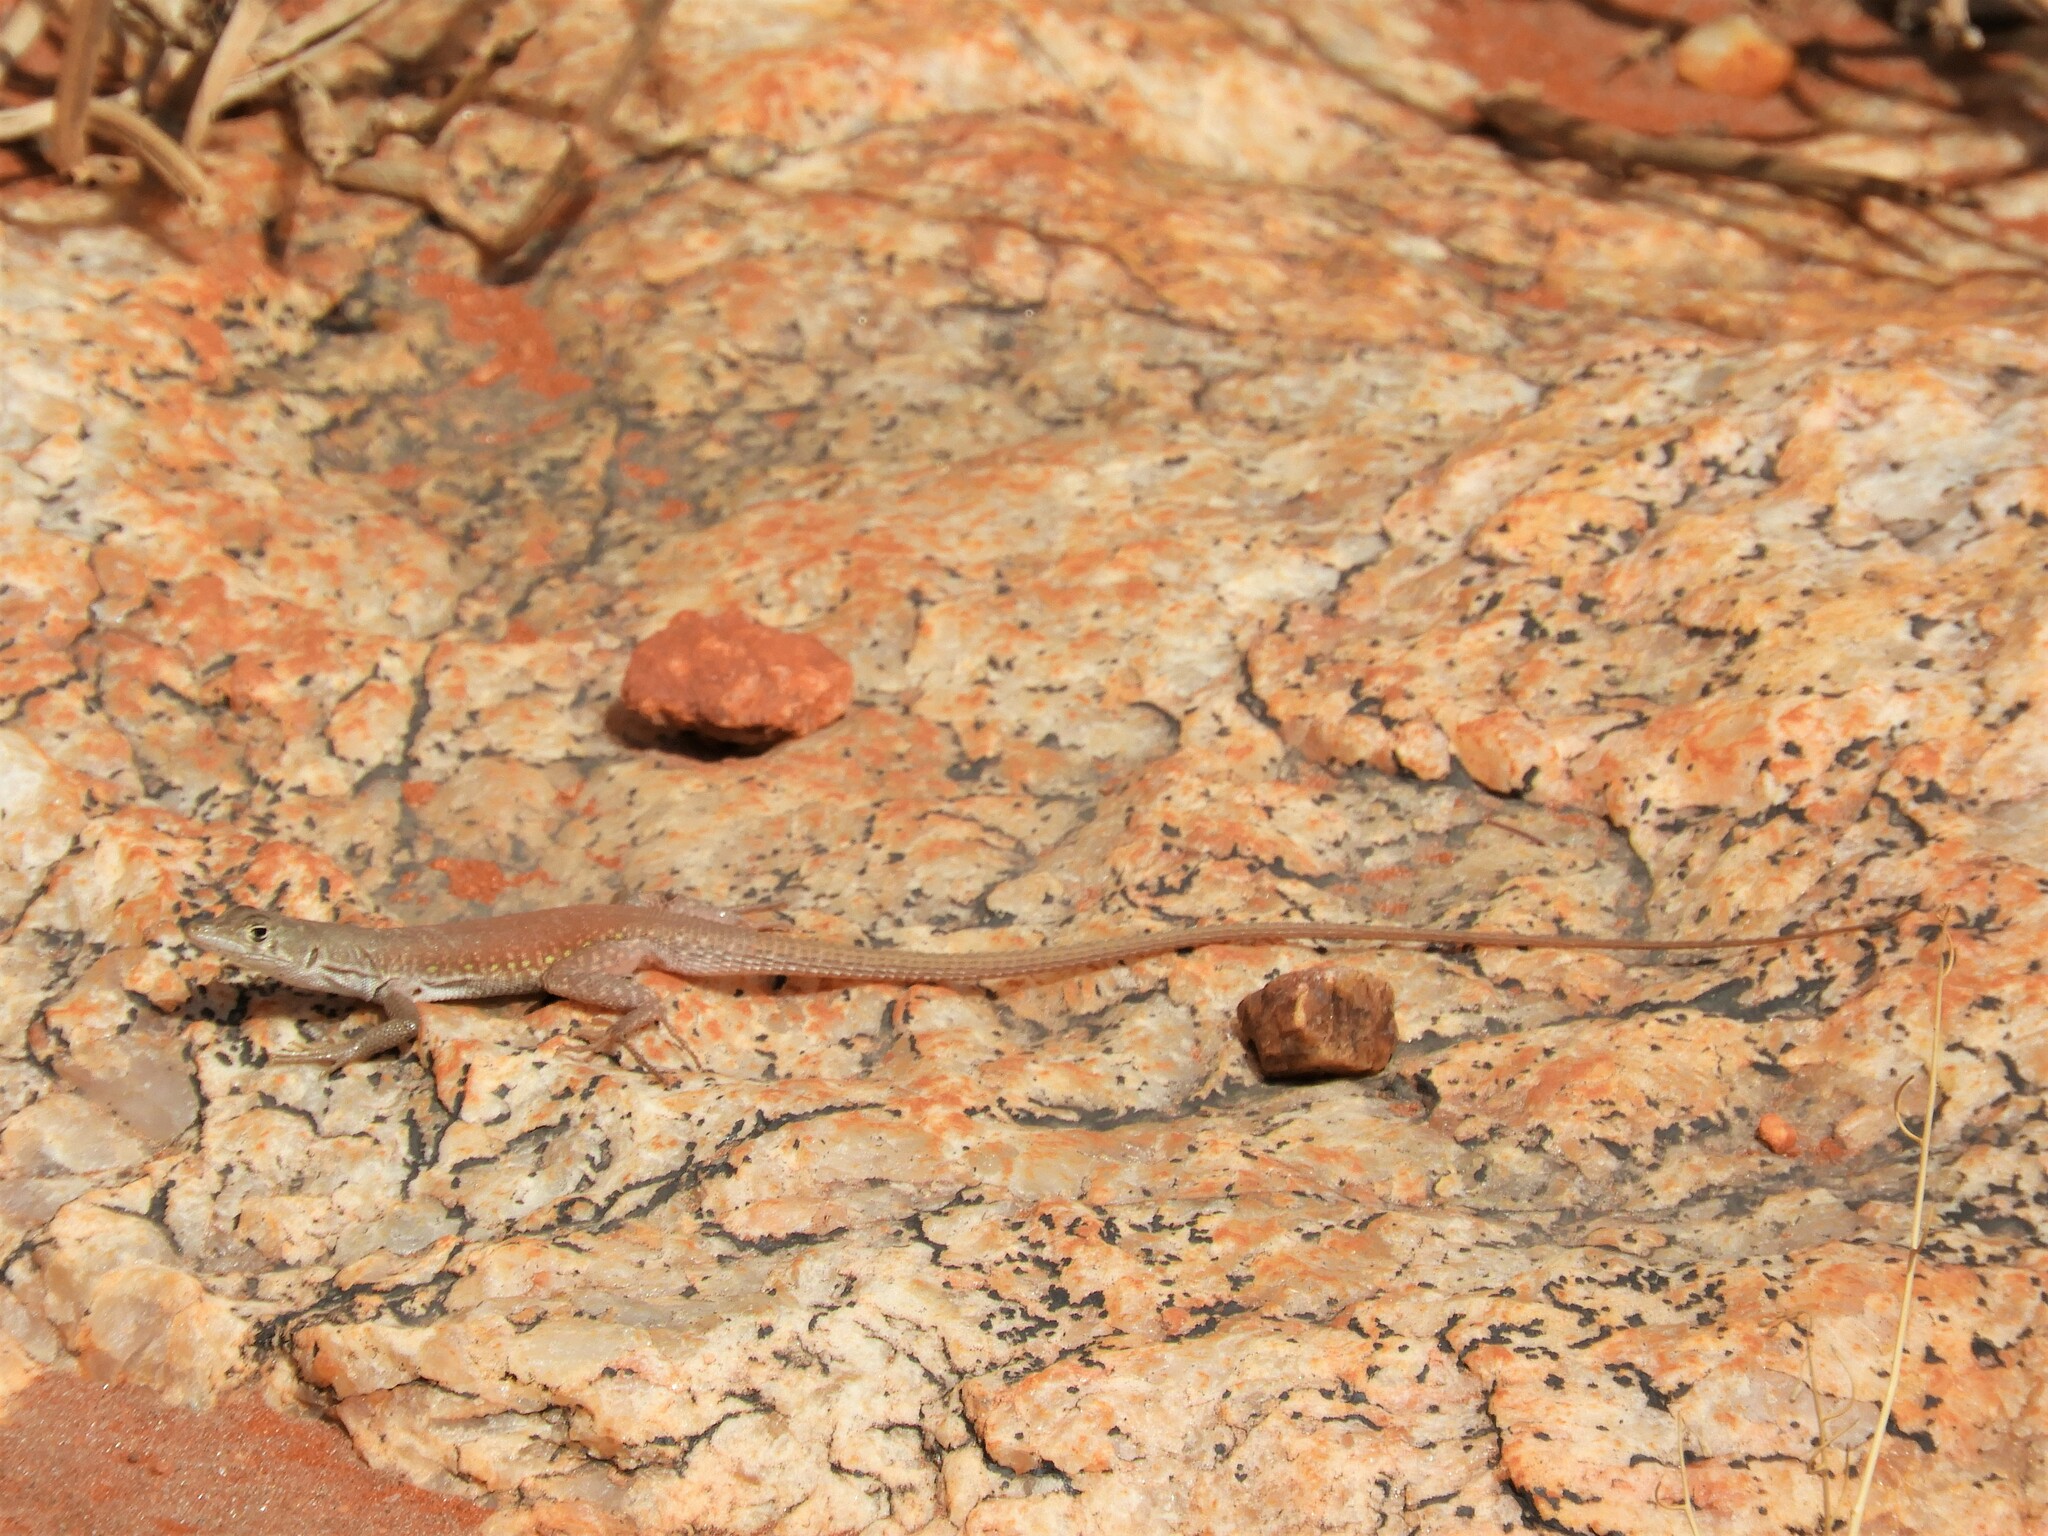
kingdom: Animalia
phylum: Chordata
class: Squamata
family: Lacertidae
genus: Pedioplanis
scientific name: Pedioplanis inornata
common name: Plain sand lizard
